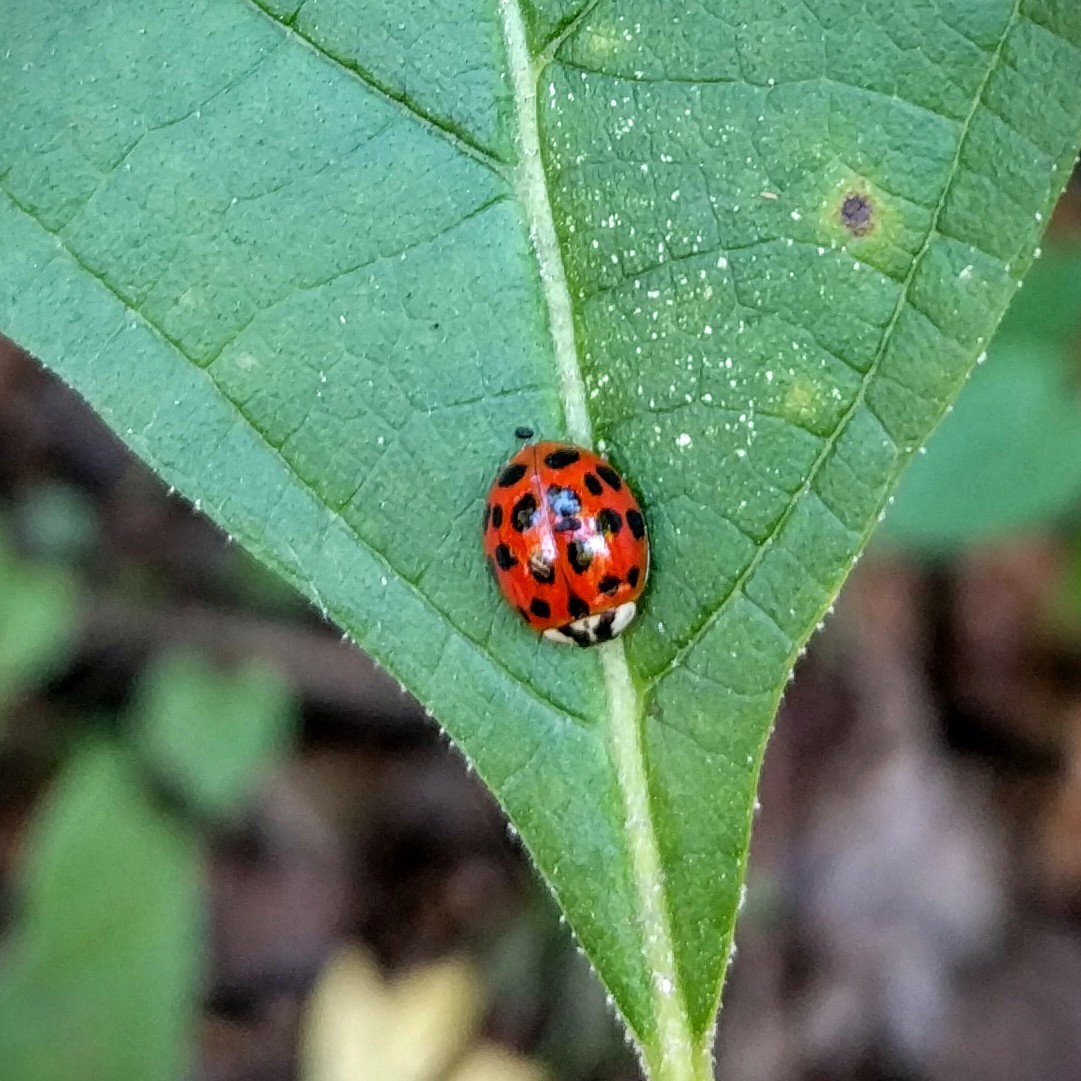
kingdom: Animalia
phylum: Arthropoda
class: Insecta
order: Coleoptera
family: Coccinellidae
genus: Harmonia
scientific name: Harmonia axyridis
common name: Harlequin ladybird
